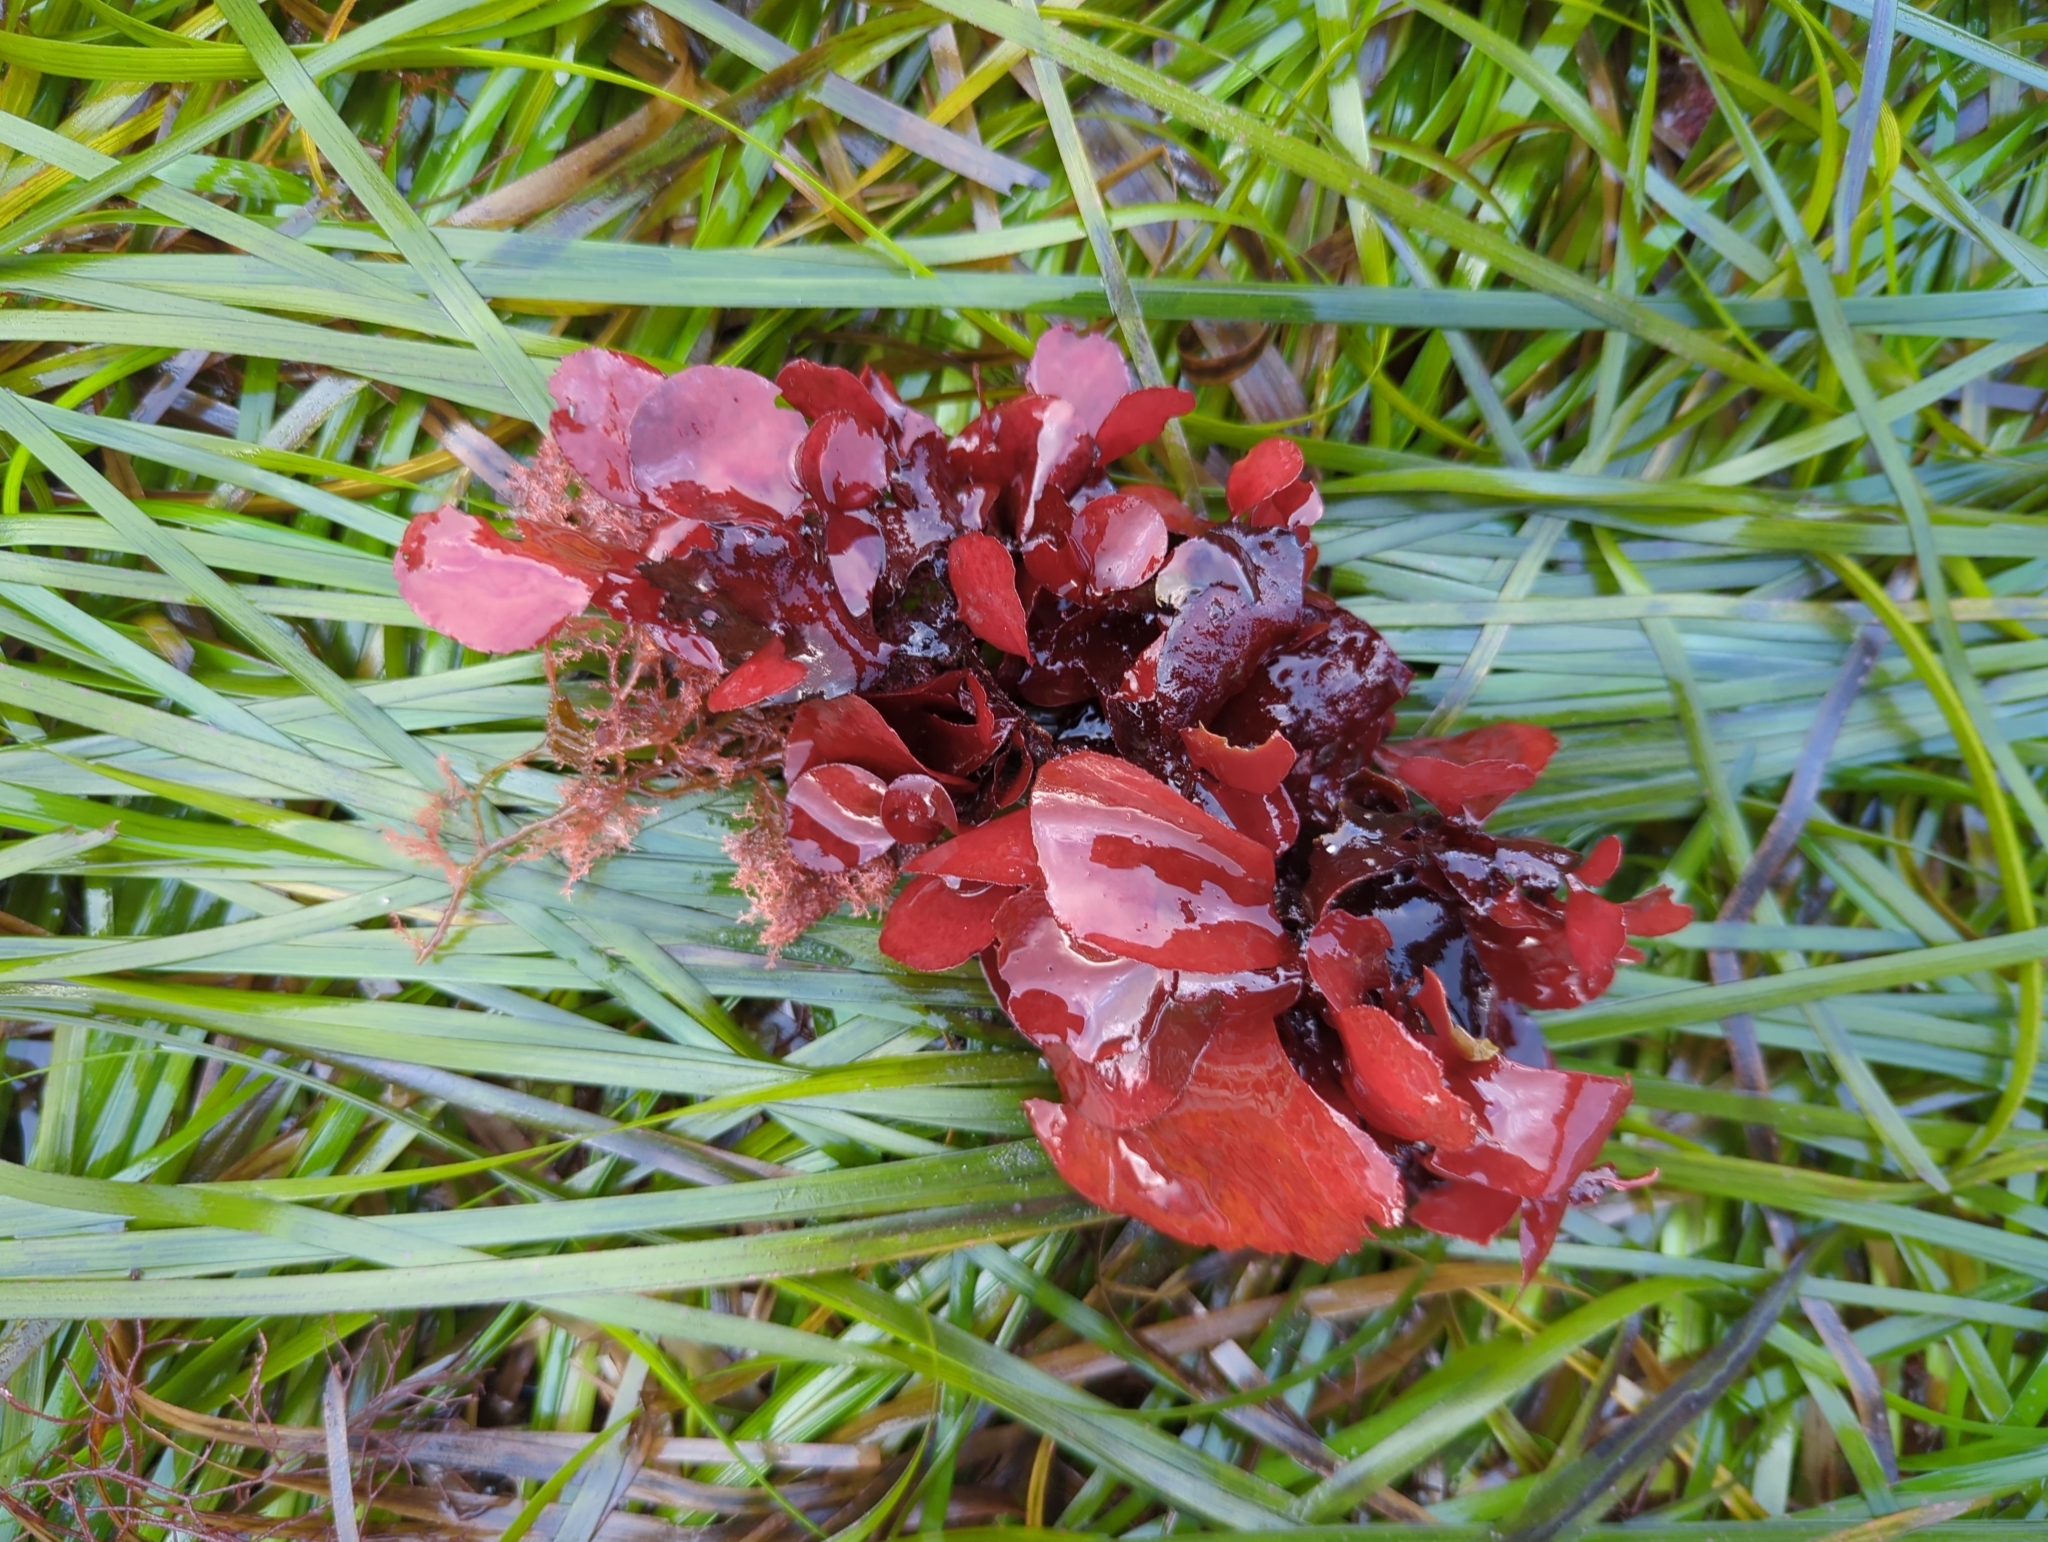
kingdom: Plantae
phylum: Rhodophyta
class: Florideophyceae
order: Gigartinales
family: Furcellariaceae
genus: Opuntiella
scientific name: Opuntiella californica
